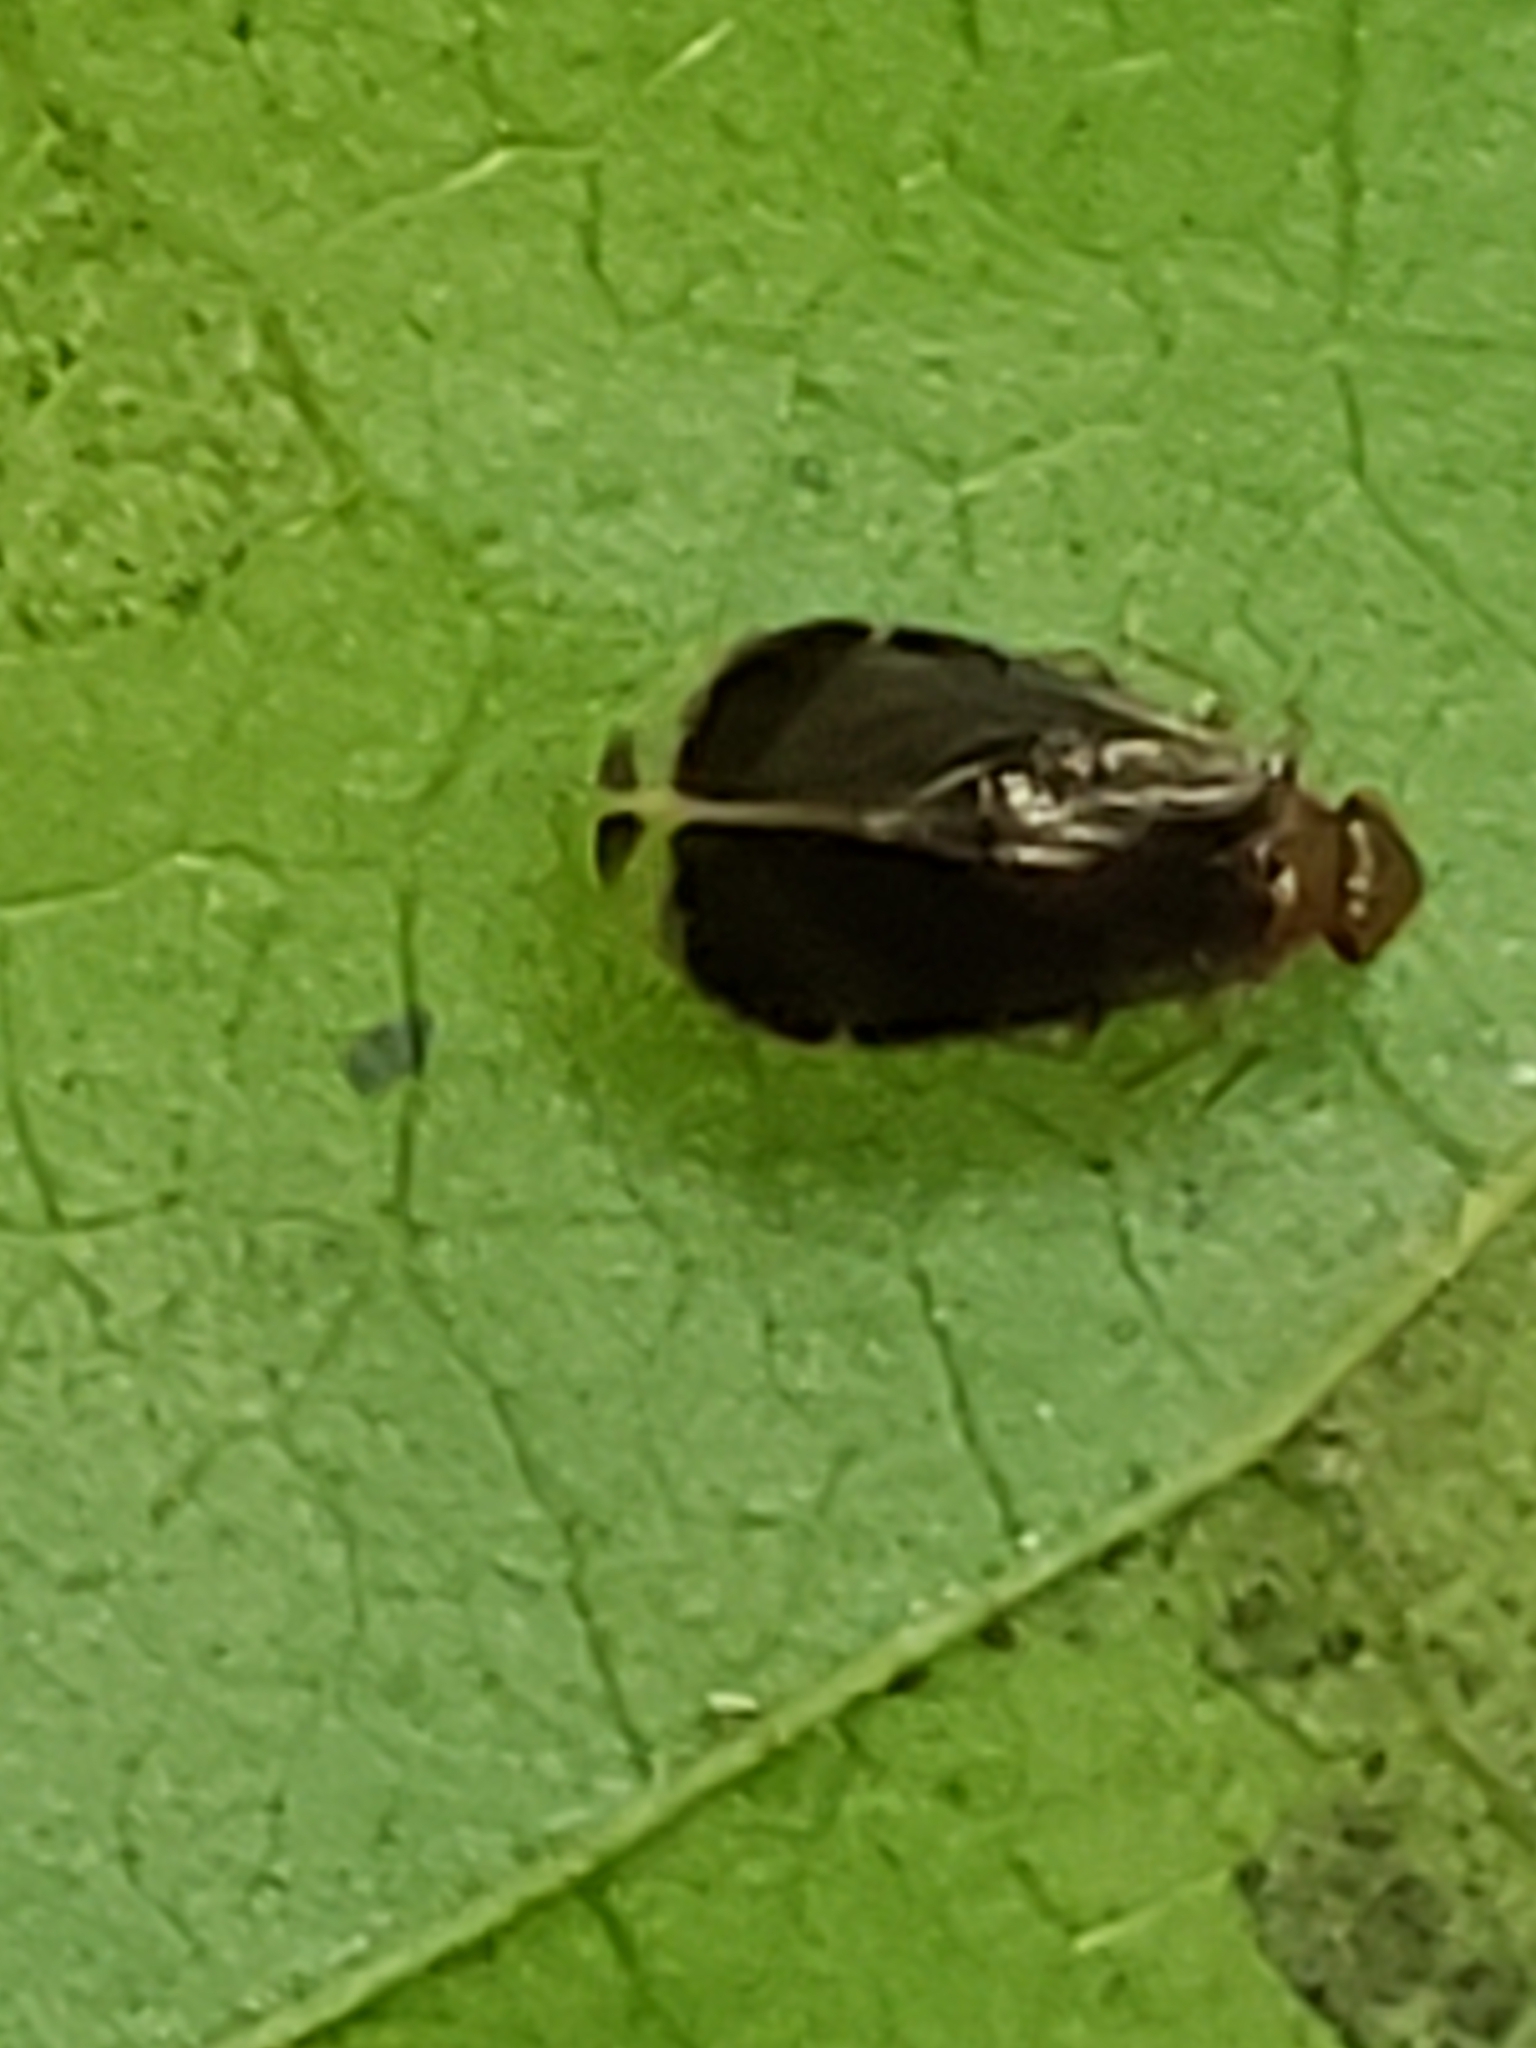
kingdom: Animalia
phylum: Arthropoda
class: Insecta
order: Psocodea
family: Amphipsocidae
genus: Polypsocus
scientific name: Polypsocus corruptus
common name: Corrupt barklouse
